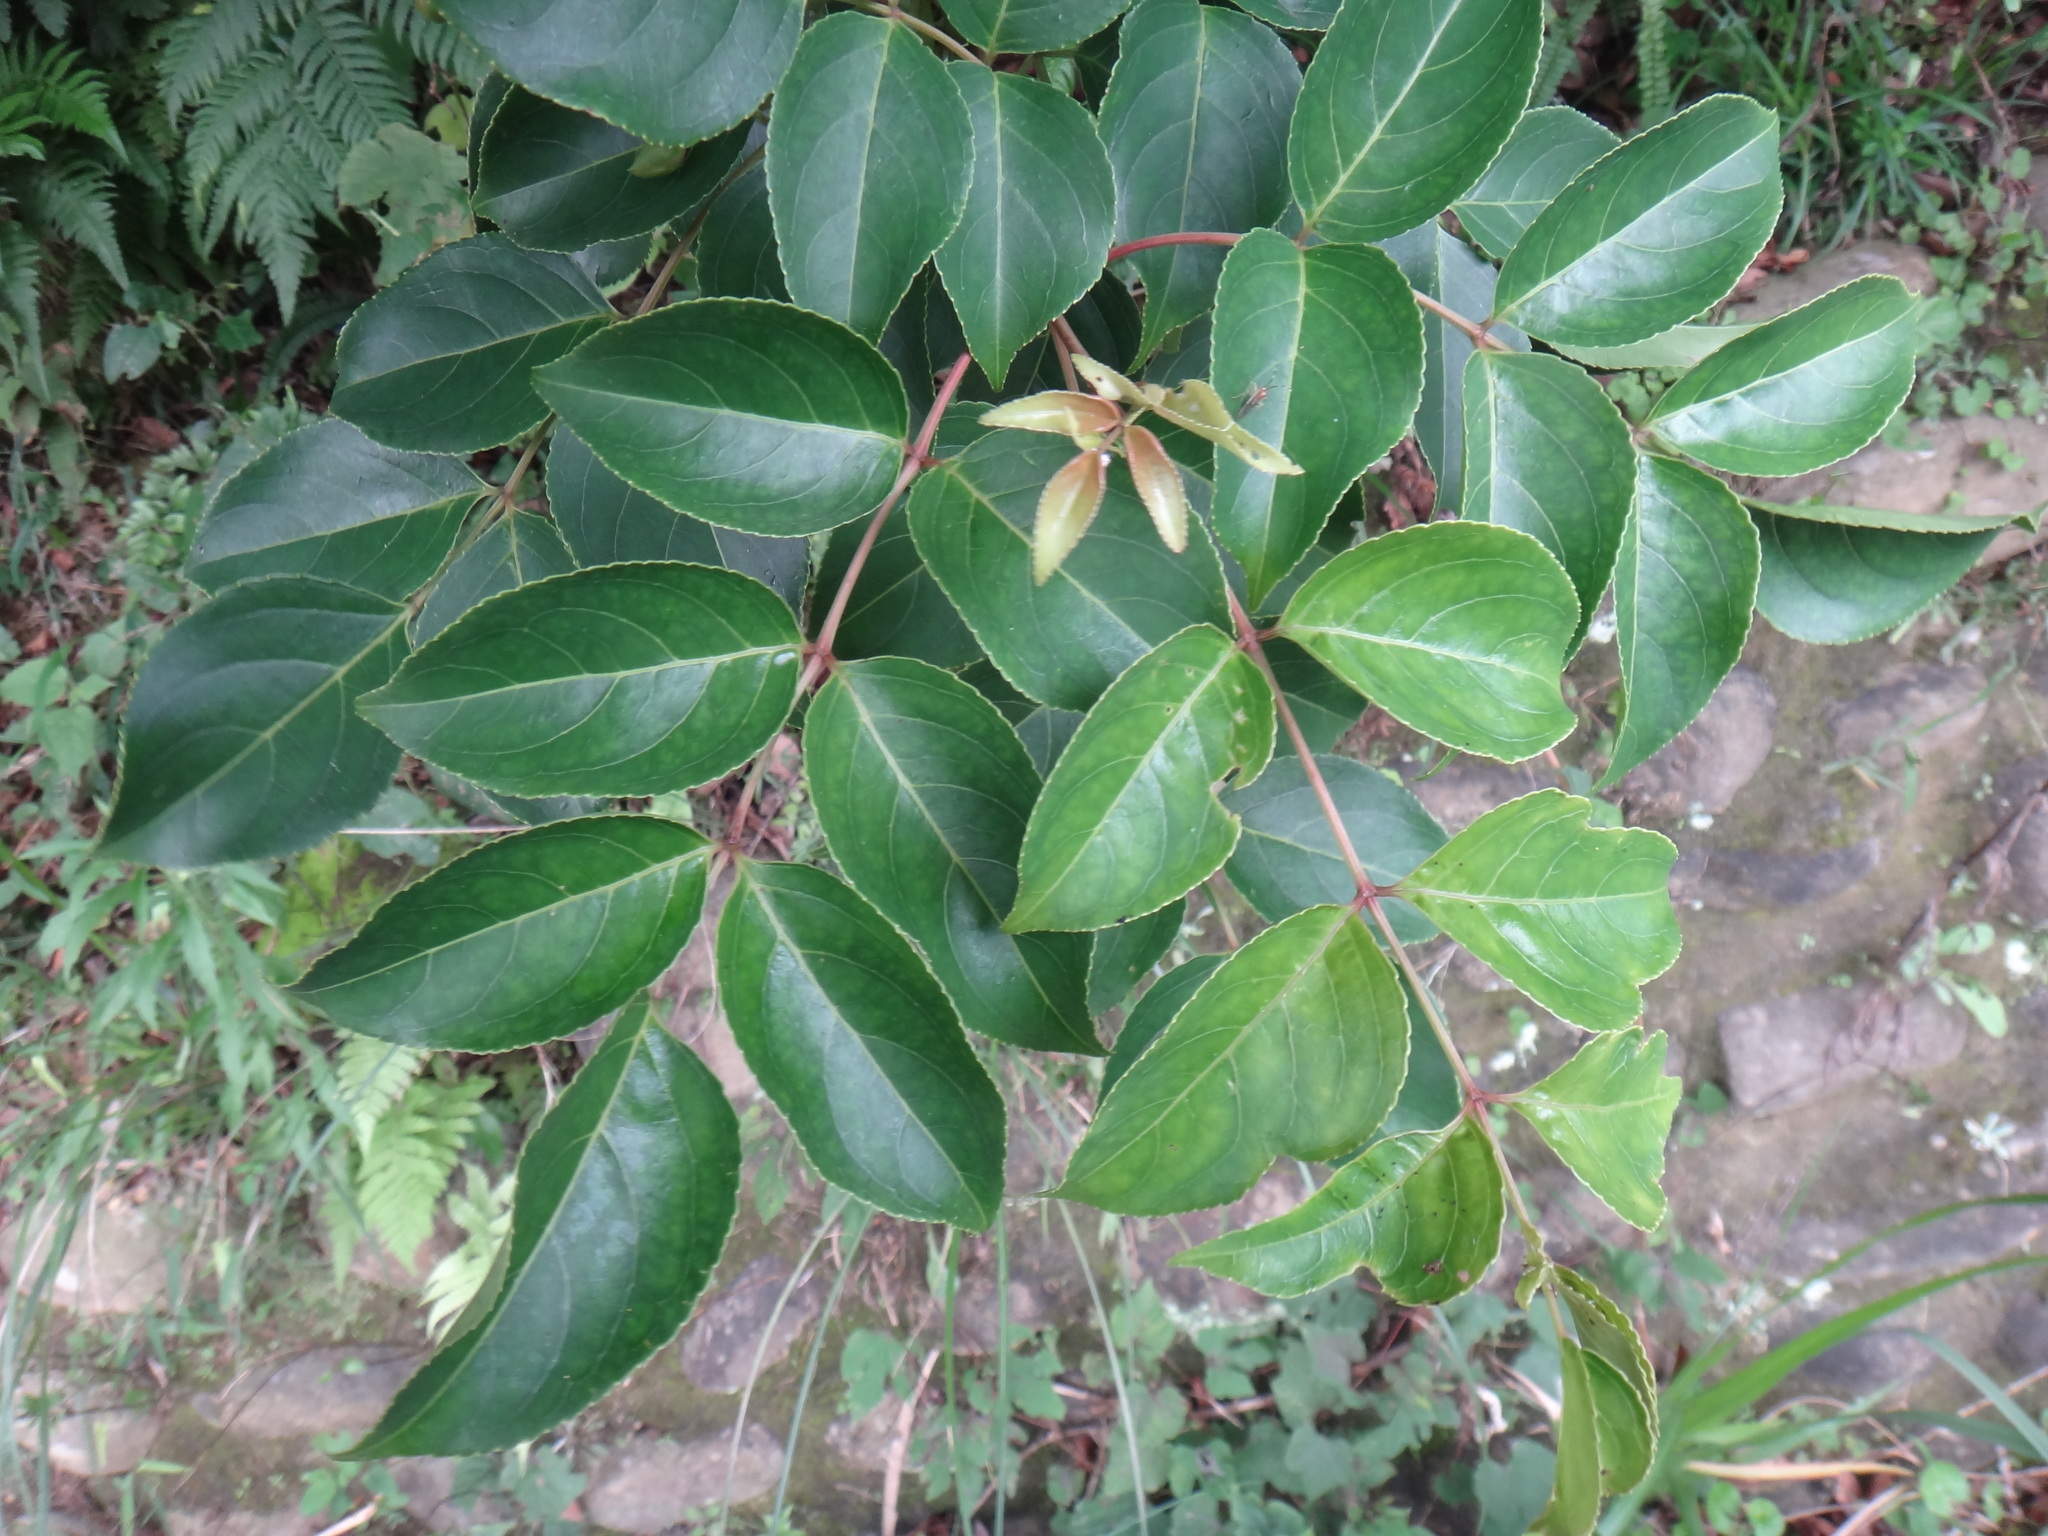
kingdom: Plantae
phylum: Tracheophyta
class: Magnoliopsida
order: Crossosomatales
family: Staphyleaceae
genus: Staphylea
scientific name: Staphylea japonica
